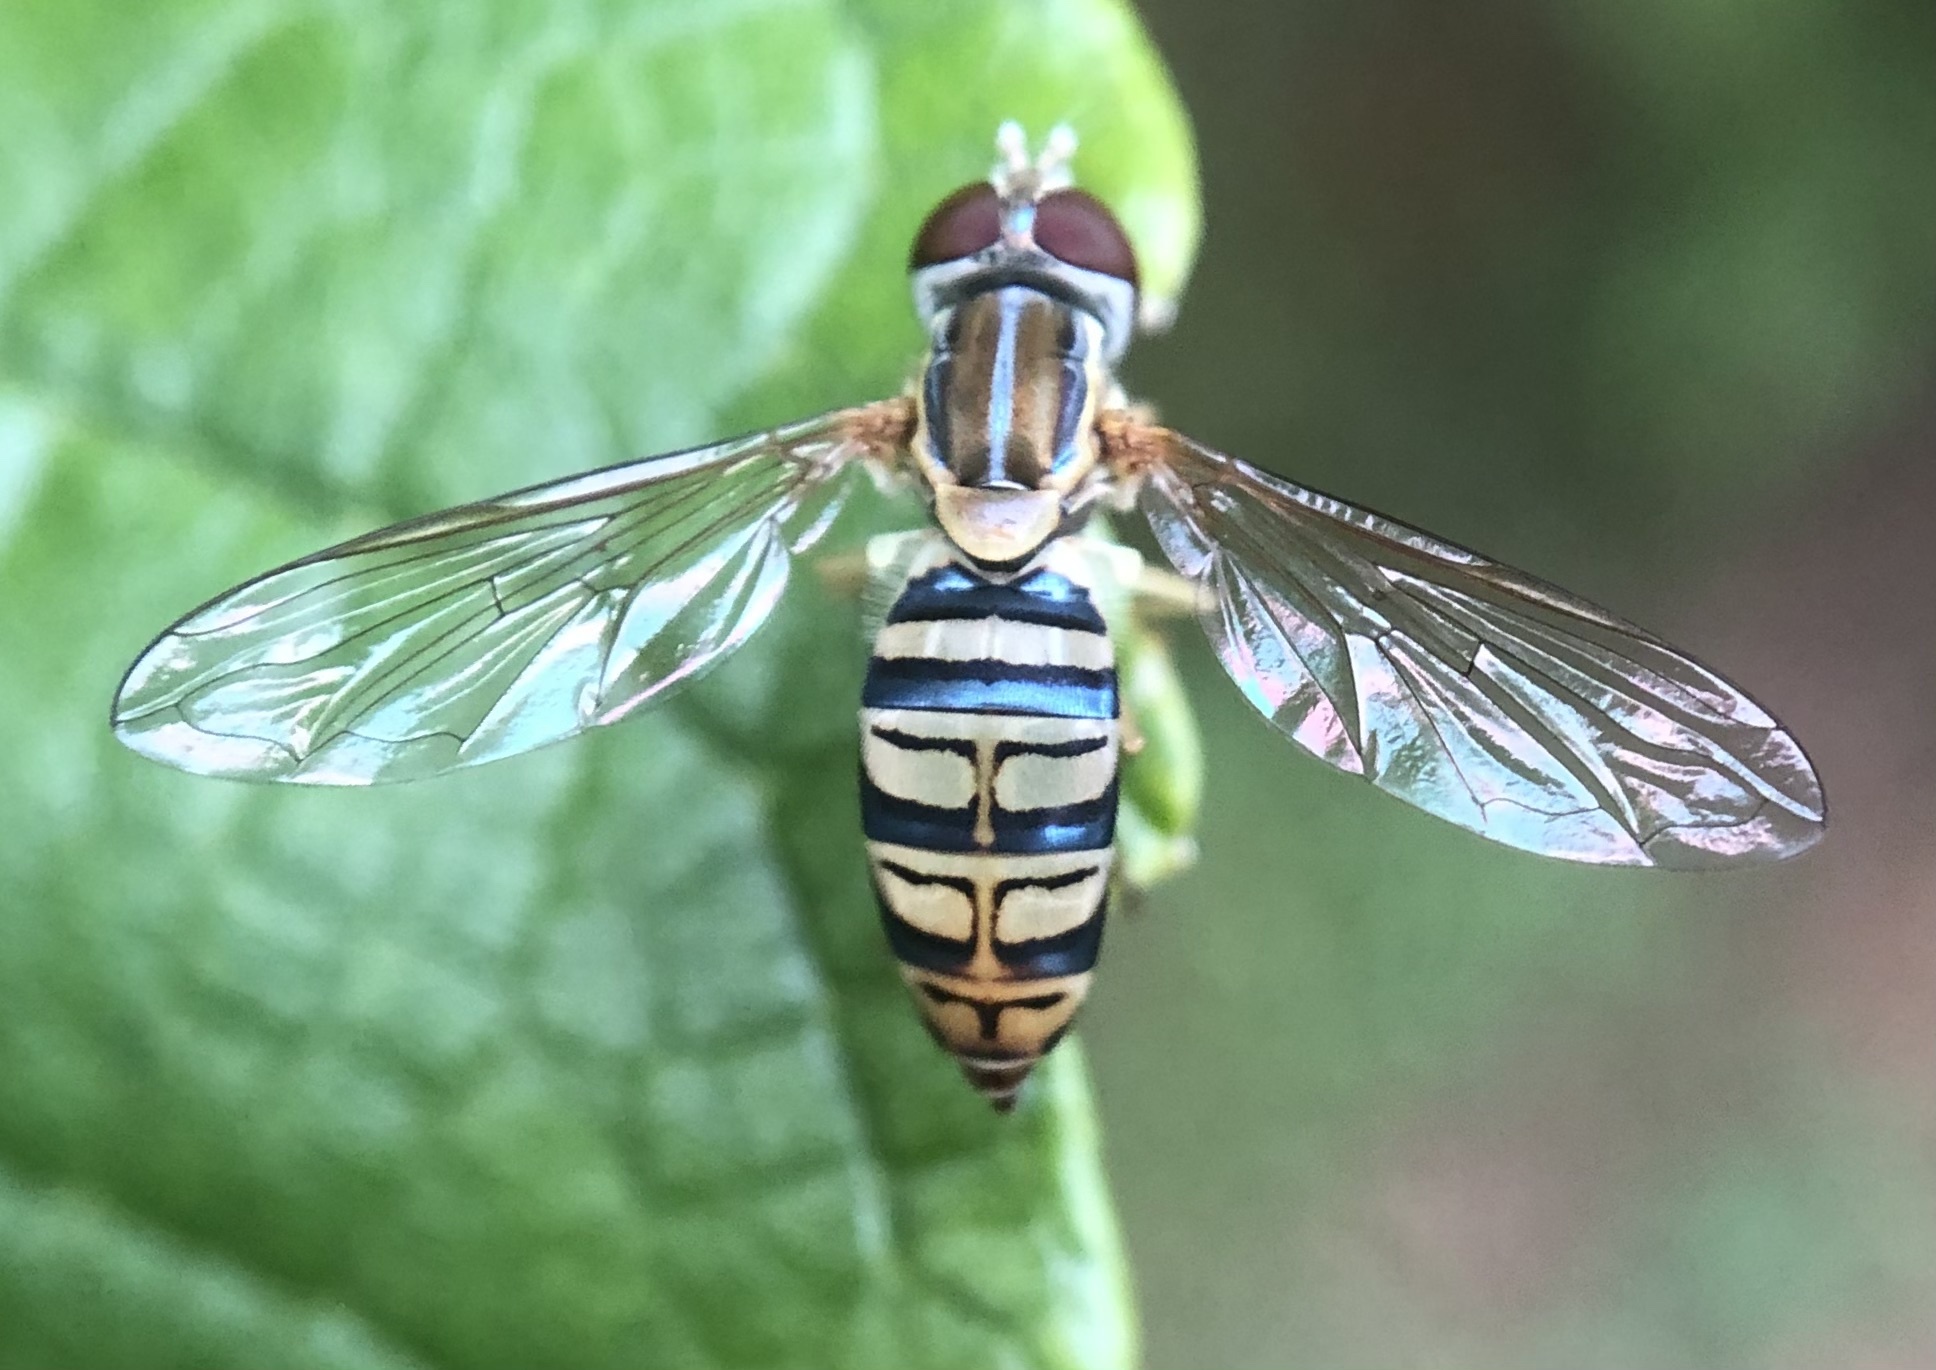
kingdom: Animalia
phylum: Arthropoda
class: Insecta
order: Diptera
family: Syrphidae
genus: Toxomerus
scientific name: Toxomerus politus
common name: Maize calligrapher
